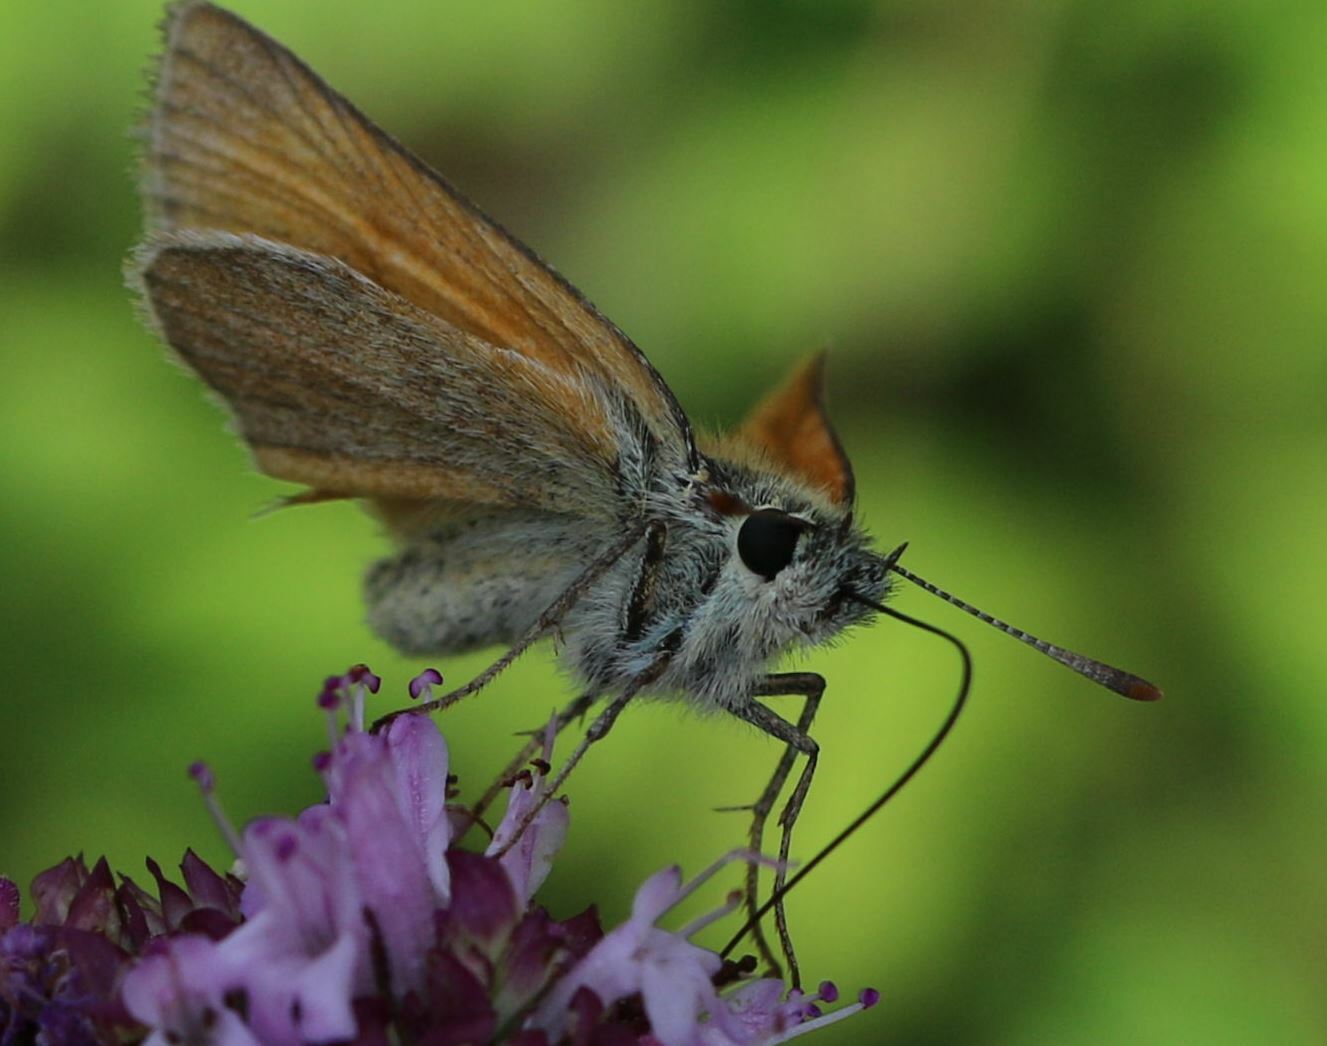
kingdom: Animalia
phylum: Arthropoda
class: Insecta
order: Lepidoptera
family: Hesperiidae
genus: Thymelicus
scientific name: Thymelicus sylvestris
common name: Small skipper
